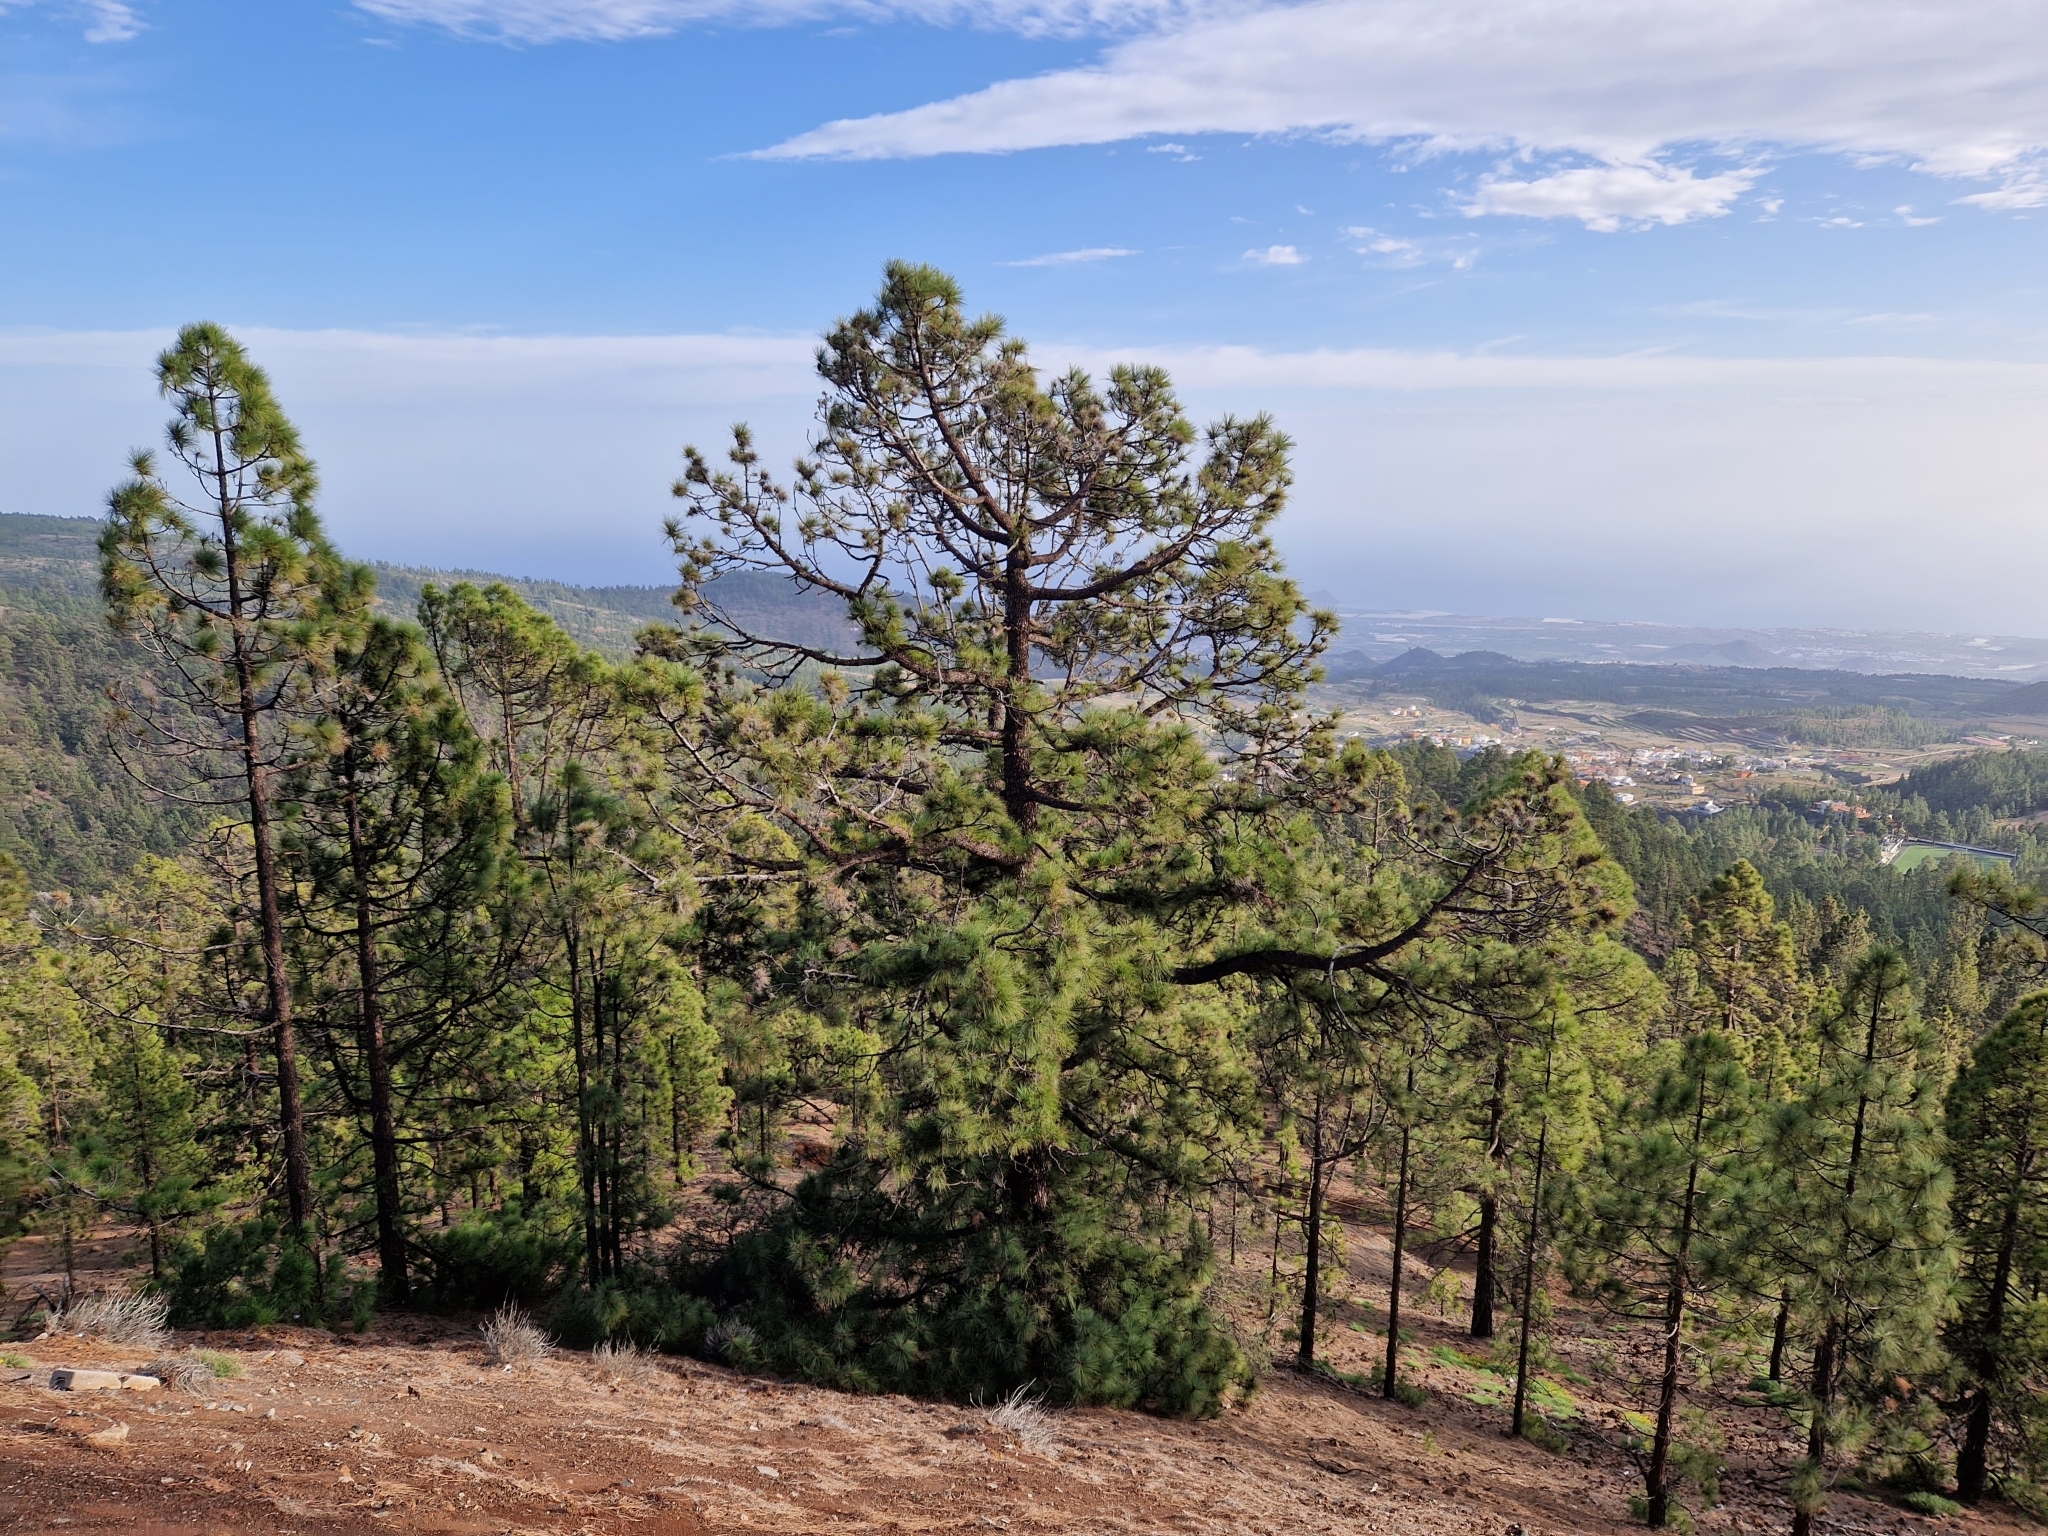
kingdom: Plantae
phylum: Tracheophyta
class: Pinopsida
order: Pinales
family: Pinaceae
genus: Pinus
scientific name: Pinus canariensis
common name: Canary islands pine
